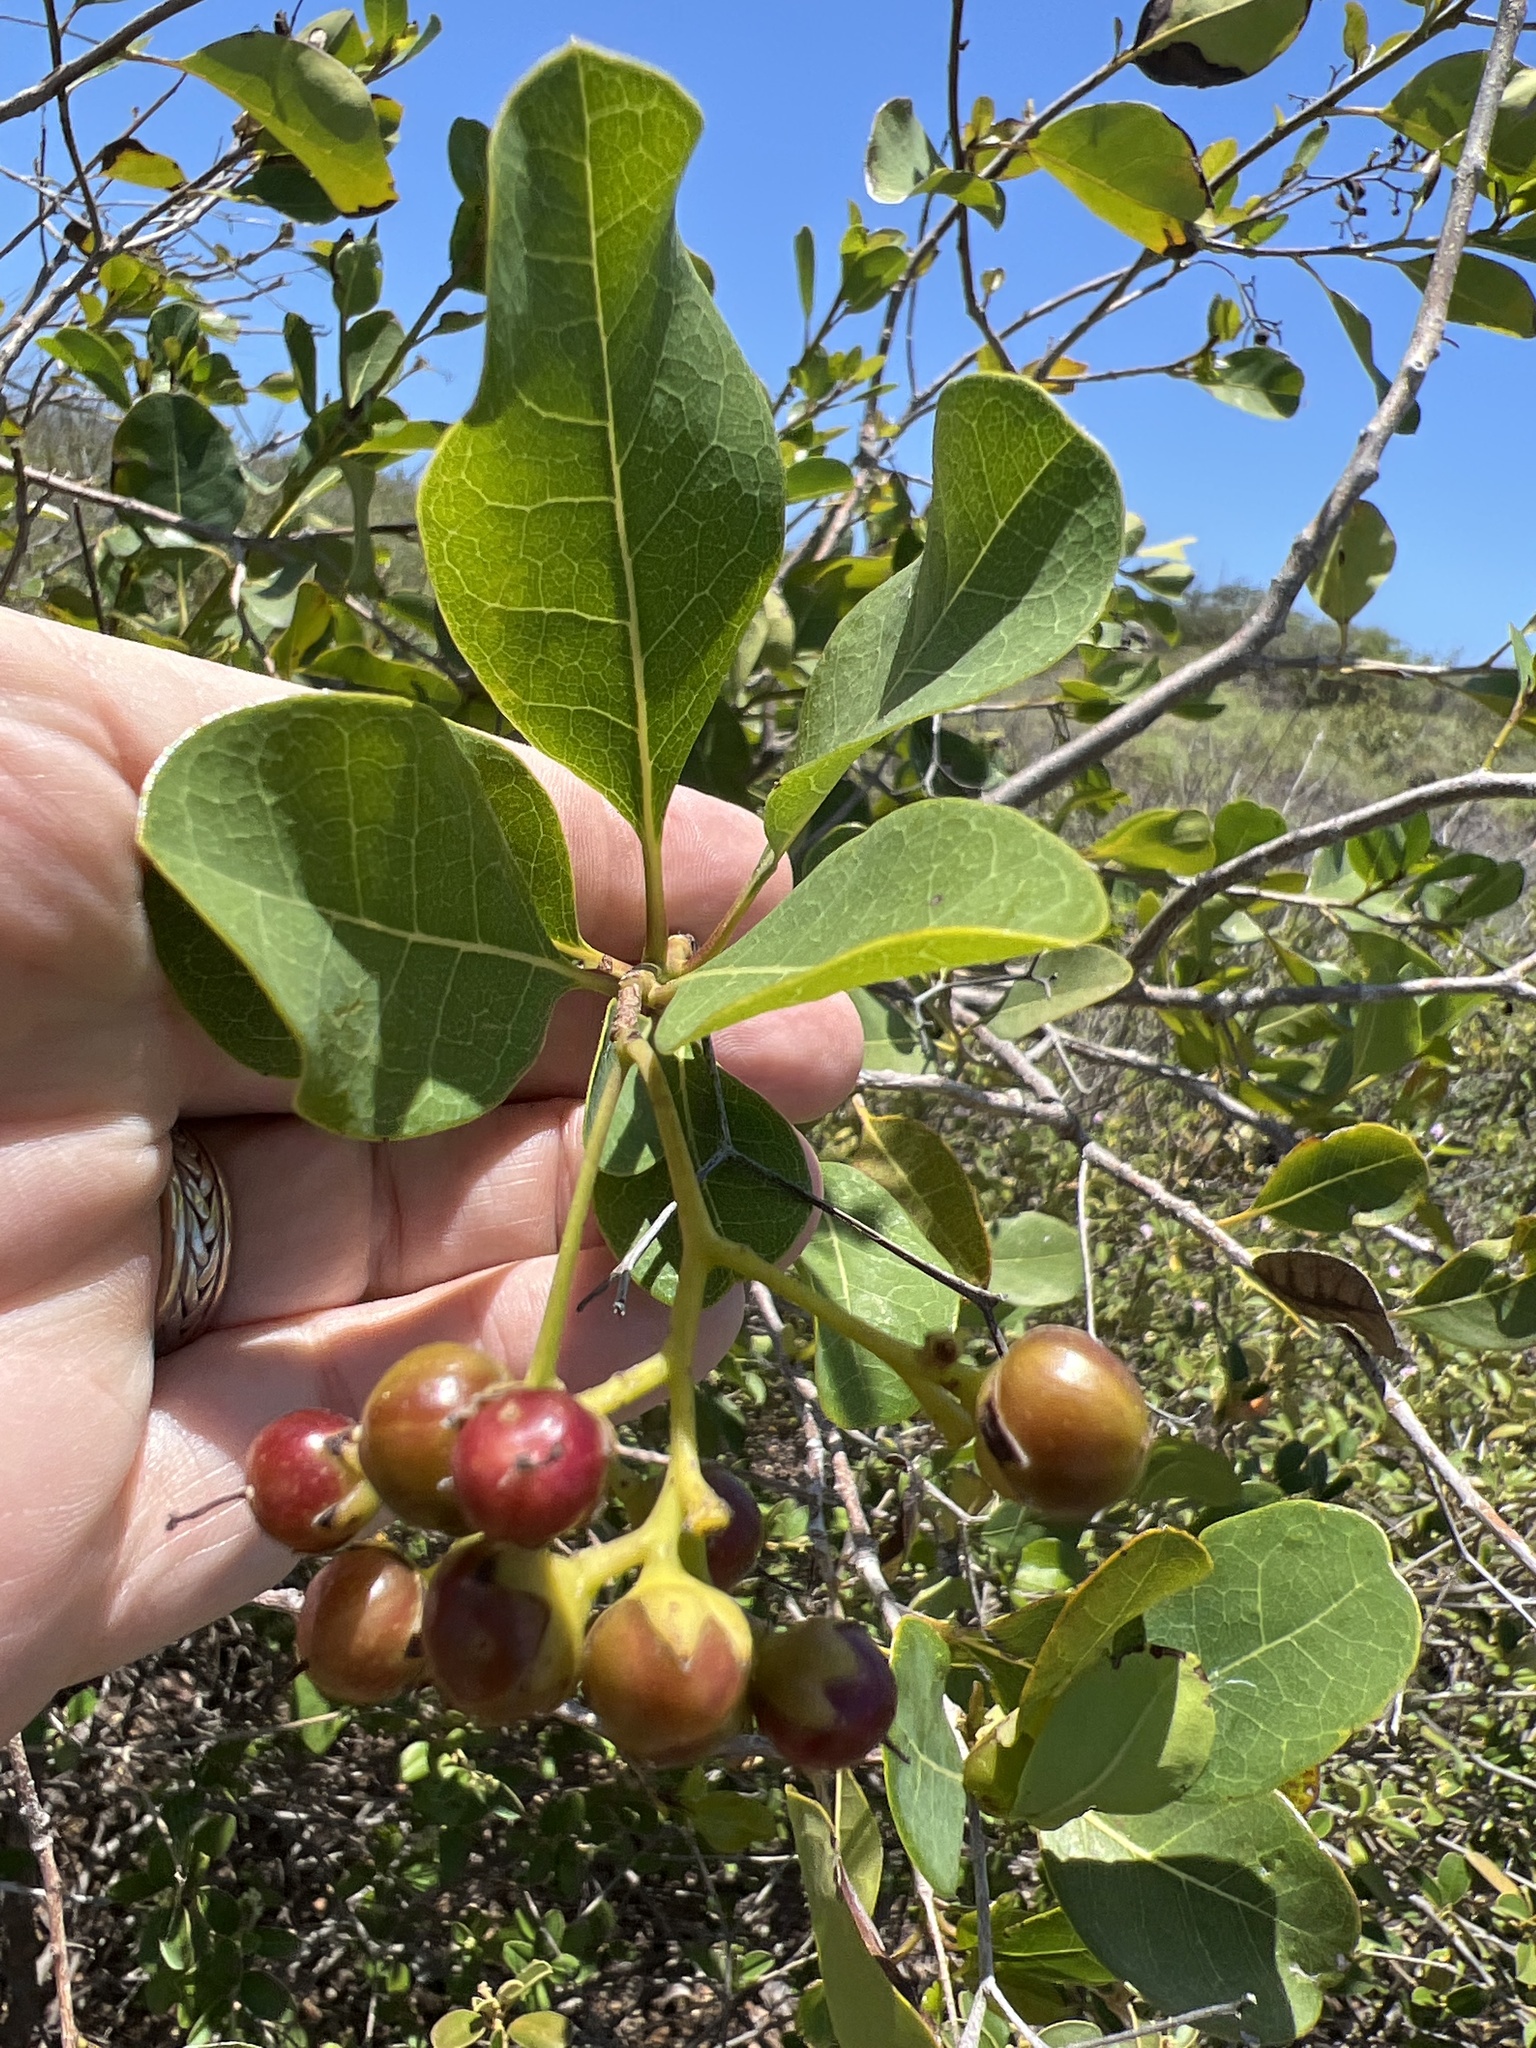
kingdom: Plantae
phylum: Tracheophyta
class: Magnoliopsida
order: Boraginales
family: Ehretiaceae
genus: Bourreria
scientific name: Bourreria succulenta
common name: Cherry
